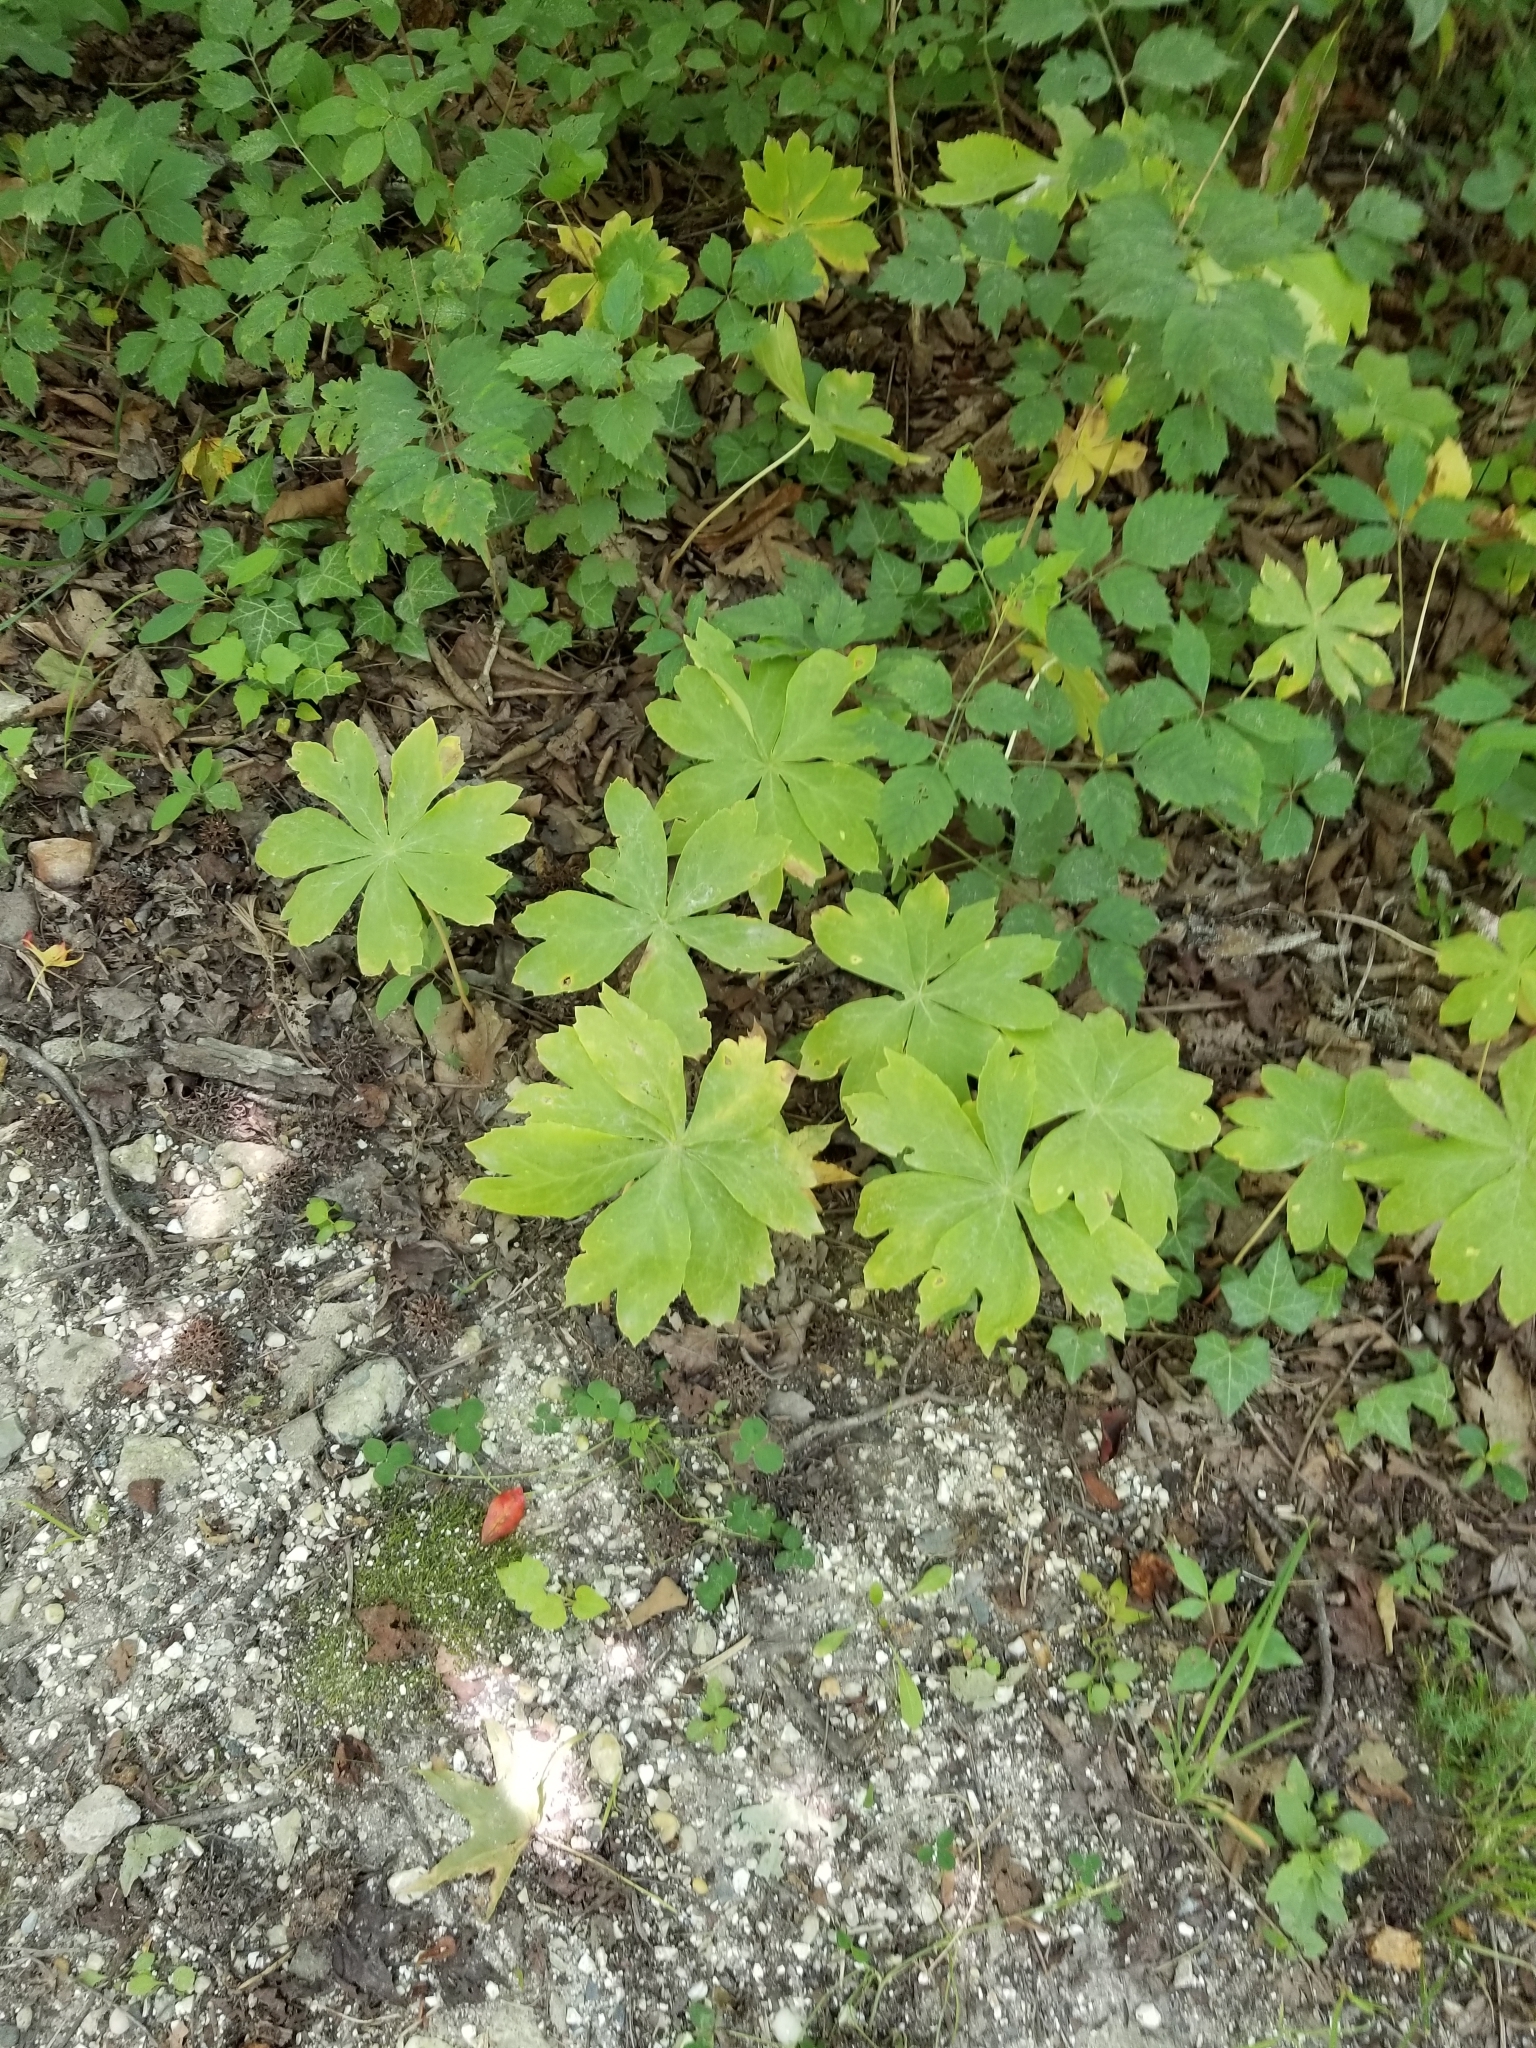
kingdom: Plantae
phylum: Tracheophyta
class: Magnoliopsida
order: Ranunculales
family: Berberidaceae
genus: Podophyllum
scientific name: Podophyllum peltatum
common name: Wild mandrake
